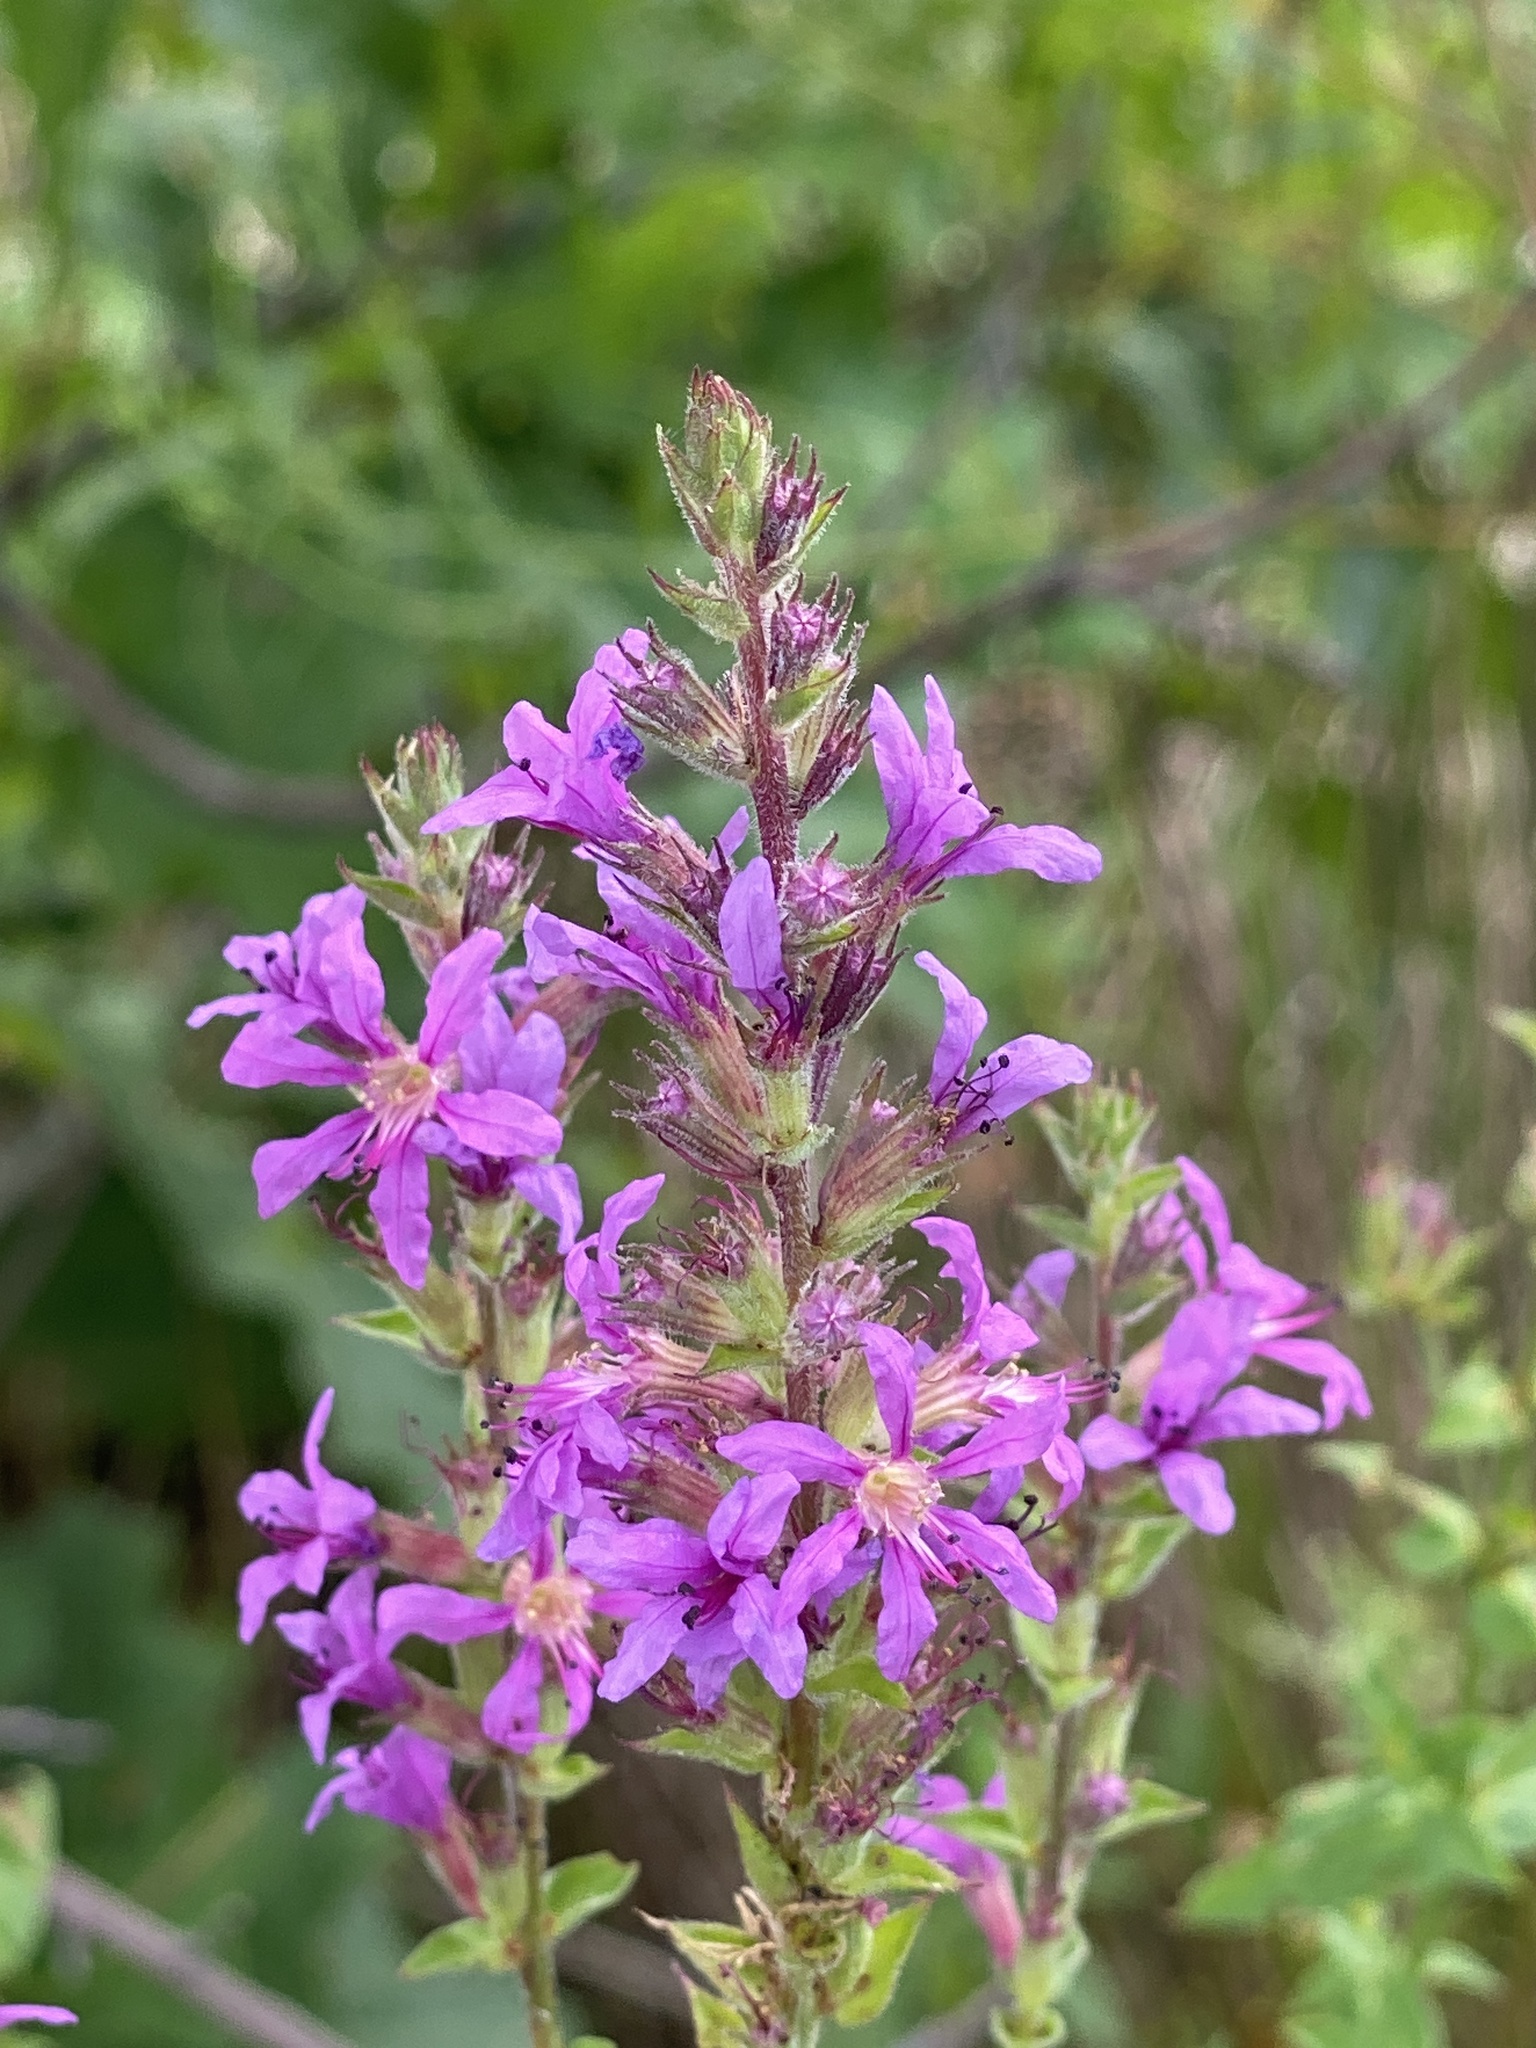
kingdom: Plantae
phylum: Tracheophyta
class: Magnoliopsida
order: Myrtales
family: Lythraceae
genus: Lythrum
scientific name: Lythrum salicaria
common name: Purple loosestrife
